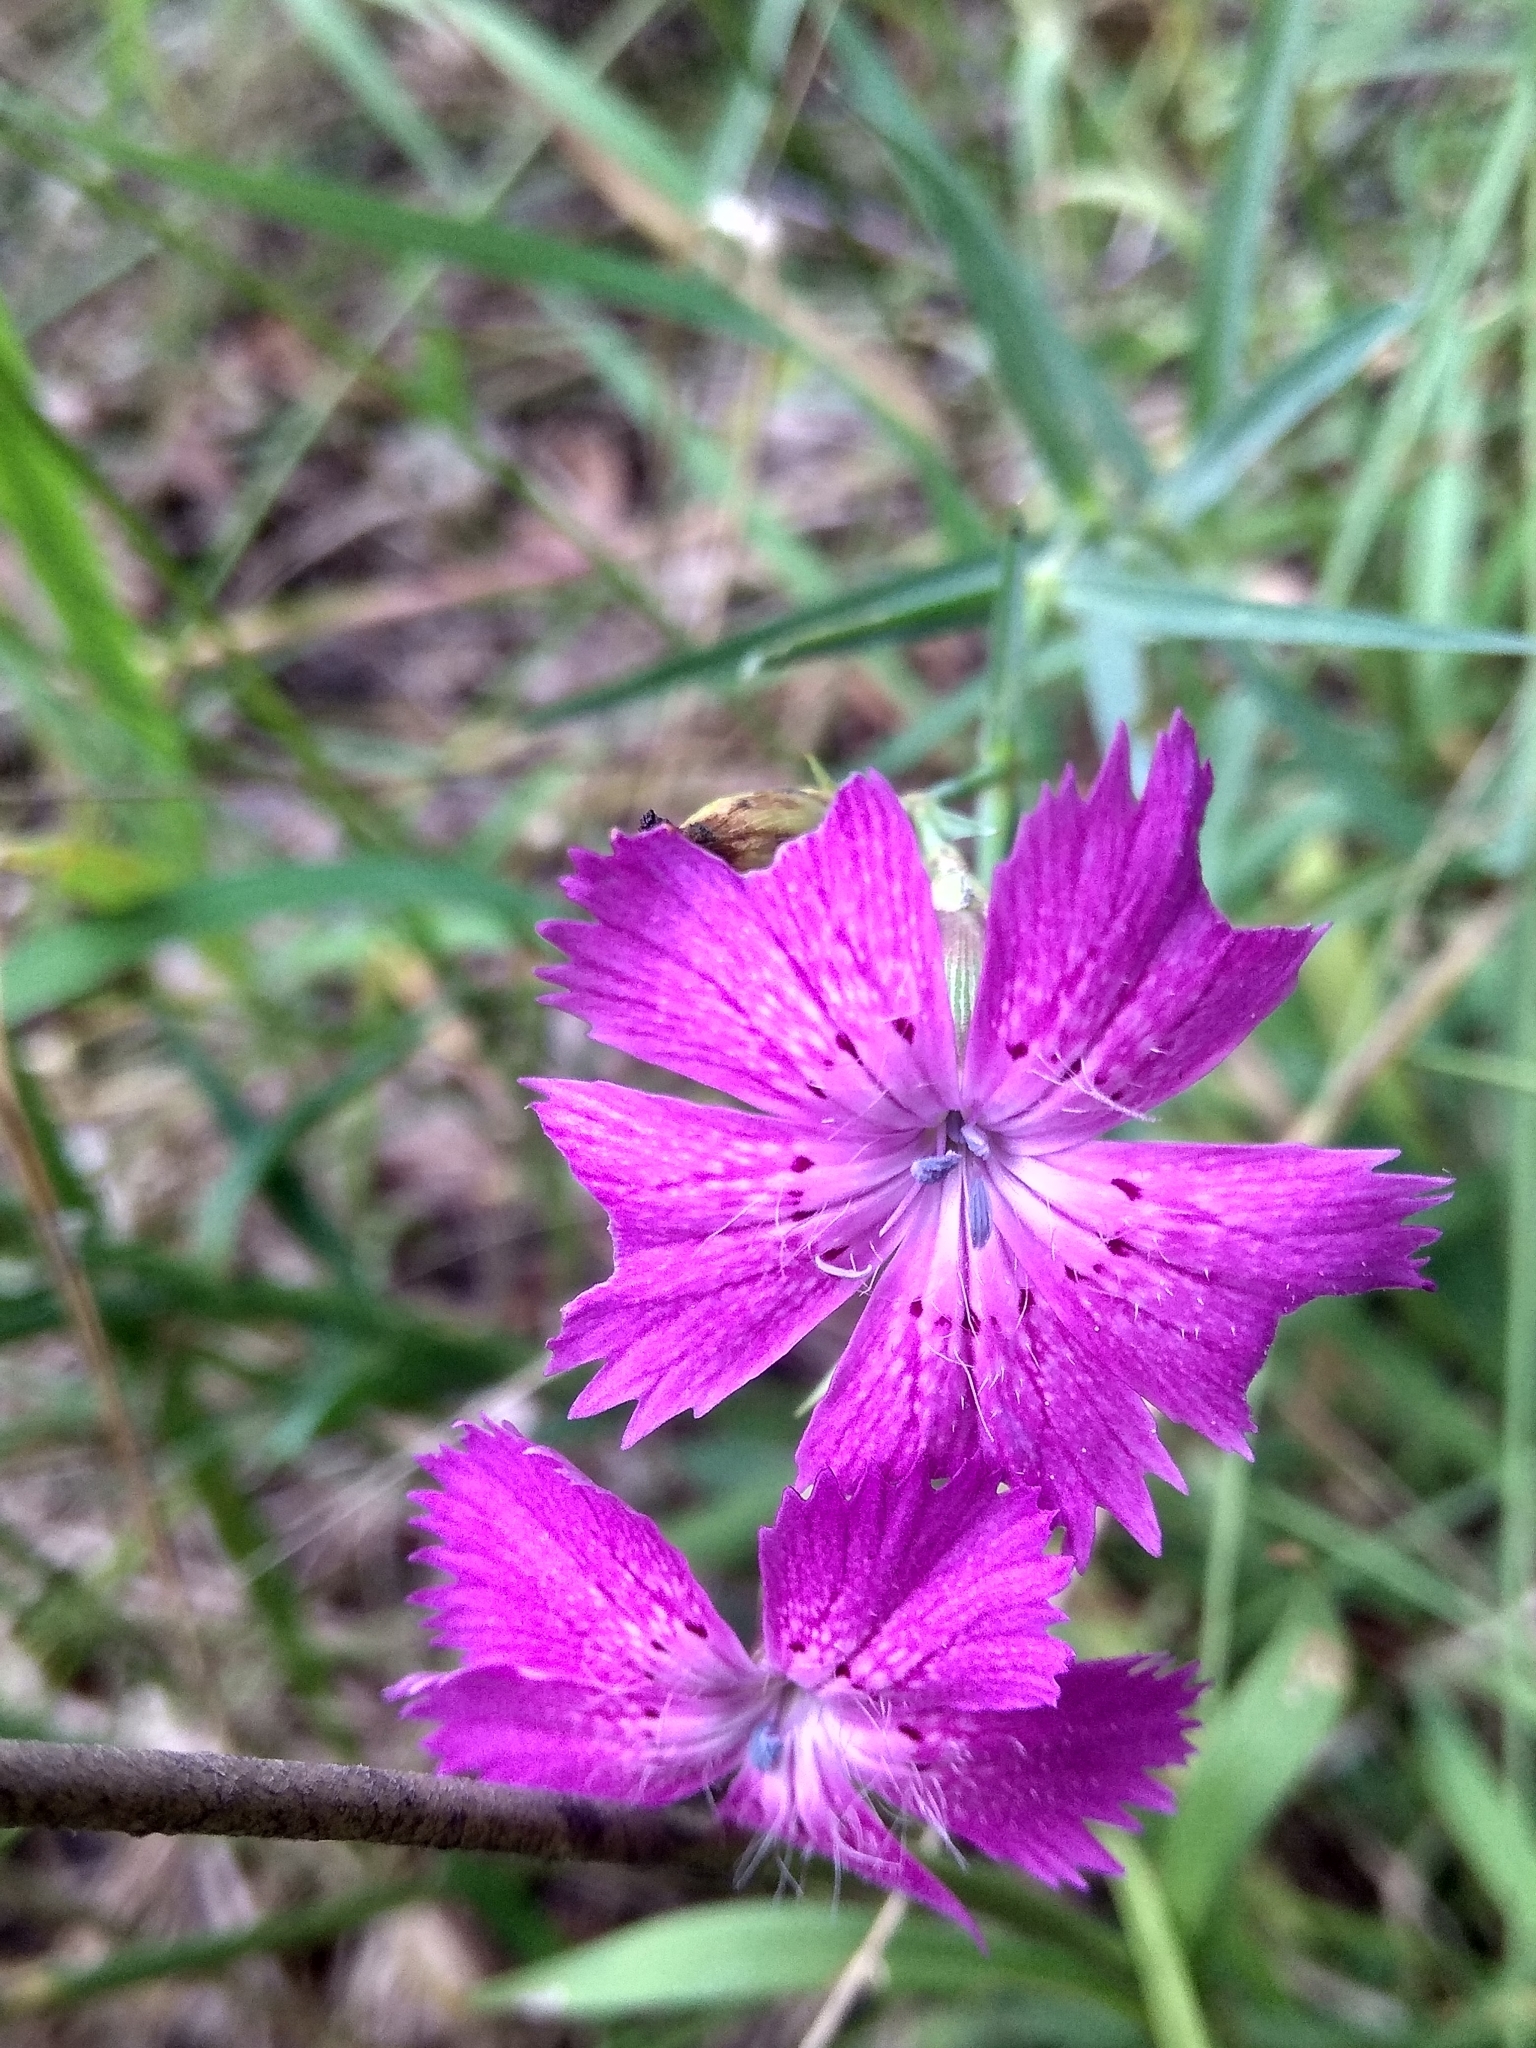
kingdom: Plantae
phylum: Tracheophyta
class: Magnoliopsida
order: Caryophyllales
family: Caryophyllaceae
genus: Dianthus
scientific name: Dianthus chinensis
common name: Rainbow pink
